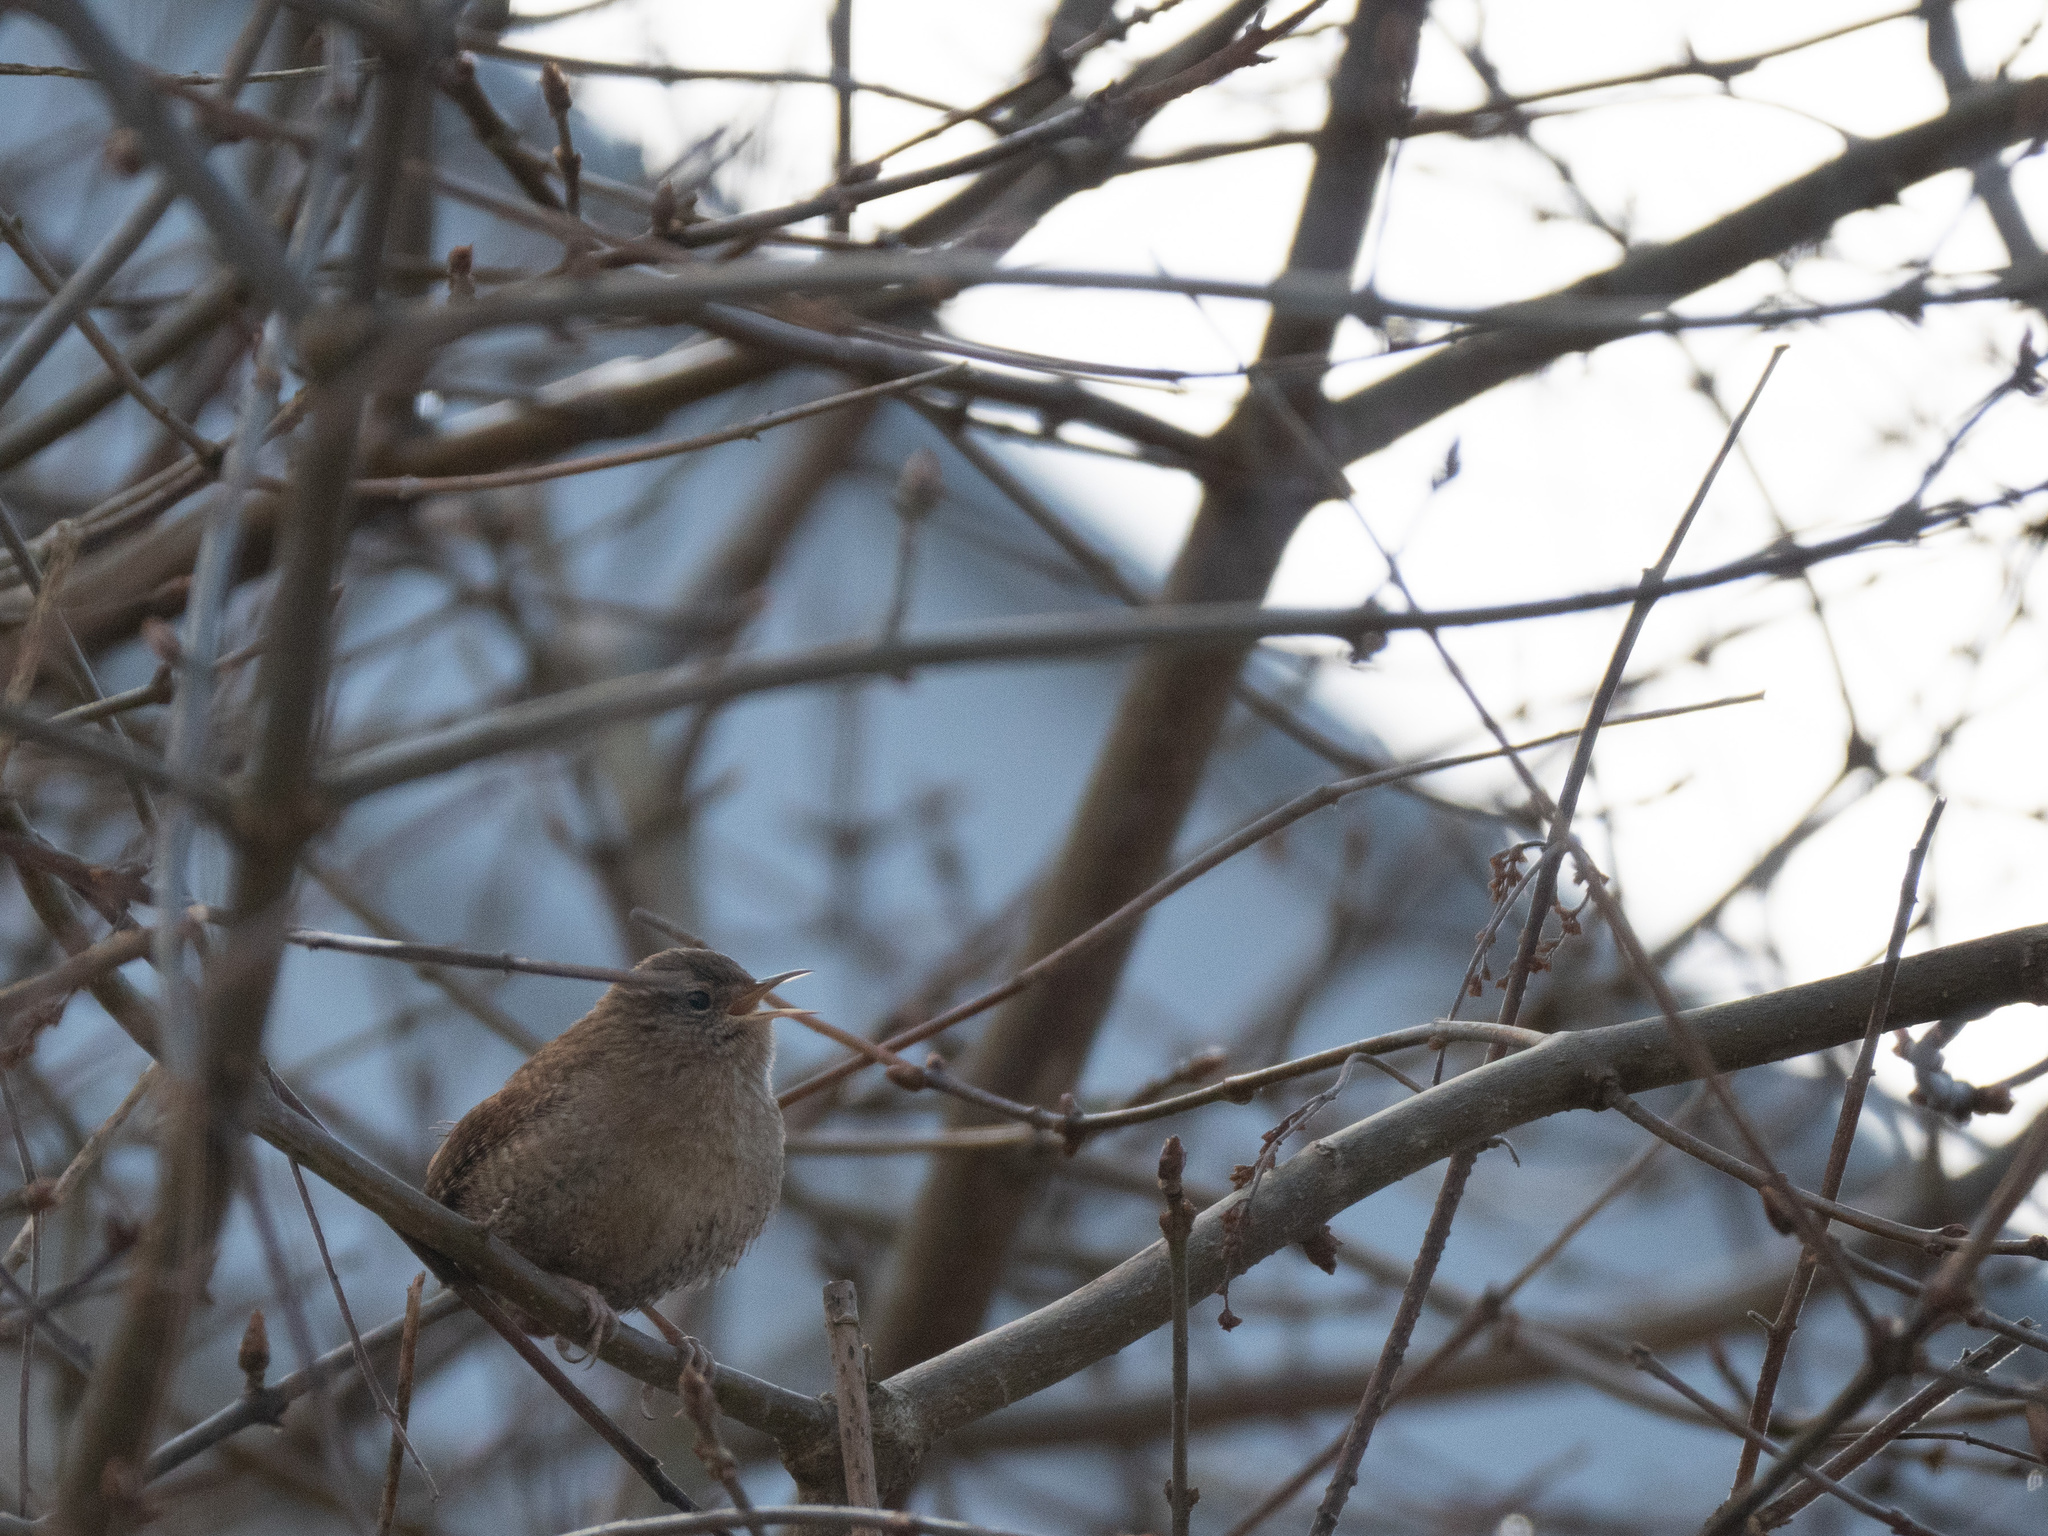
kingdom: Animalia
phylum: Chordata
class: Aves
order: Passeriformes
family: Troglodytidae
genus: Troglodytes
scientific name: Troglodytes troglodytes
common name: Eurasian wren
